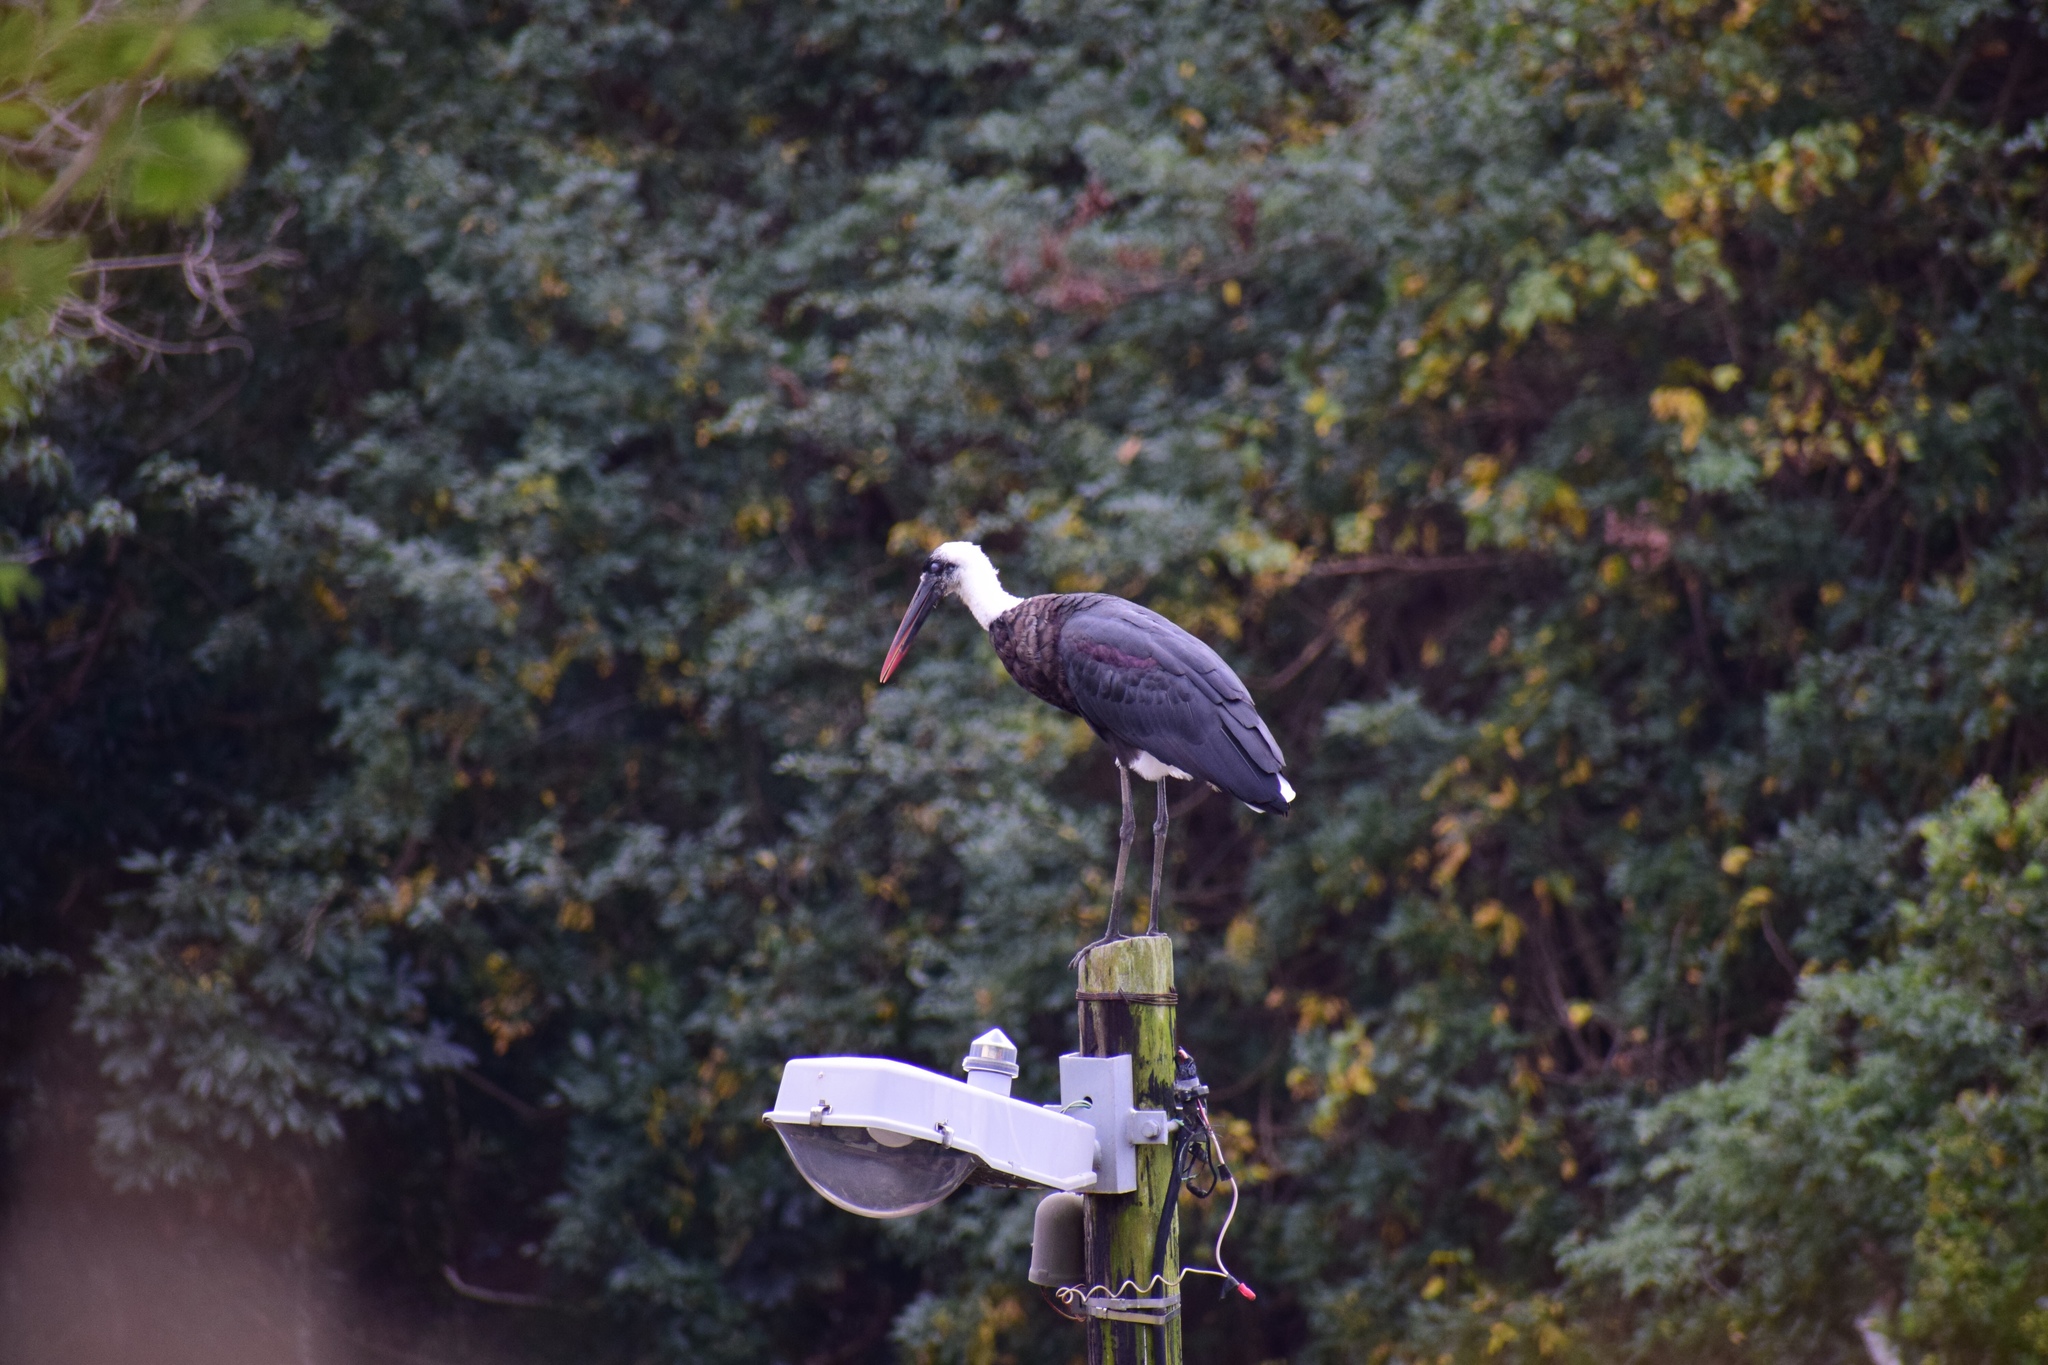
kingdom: Animalia
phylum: Chordata
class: Aves
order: Ciconiiformes
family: Ciconiidae
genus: Ciconia
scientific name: Ciconia microscelis
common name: African woollyneck
